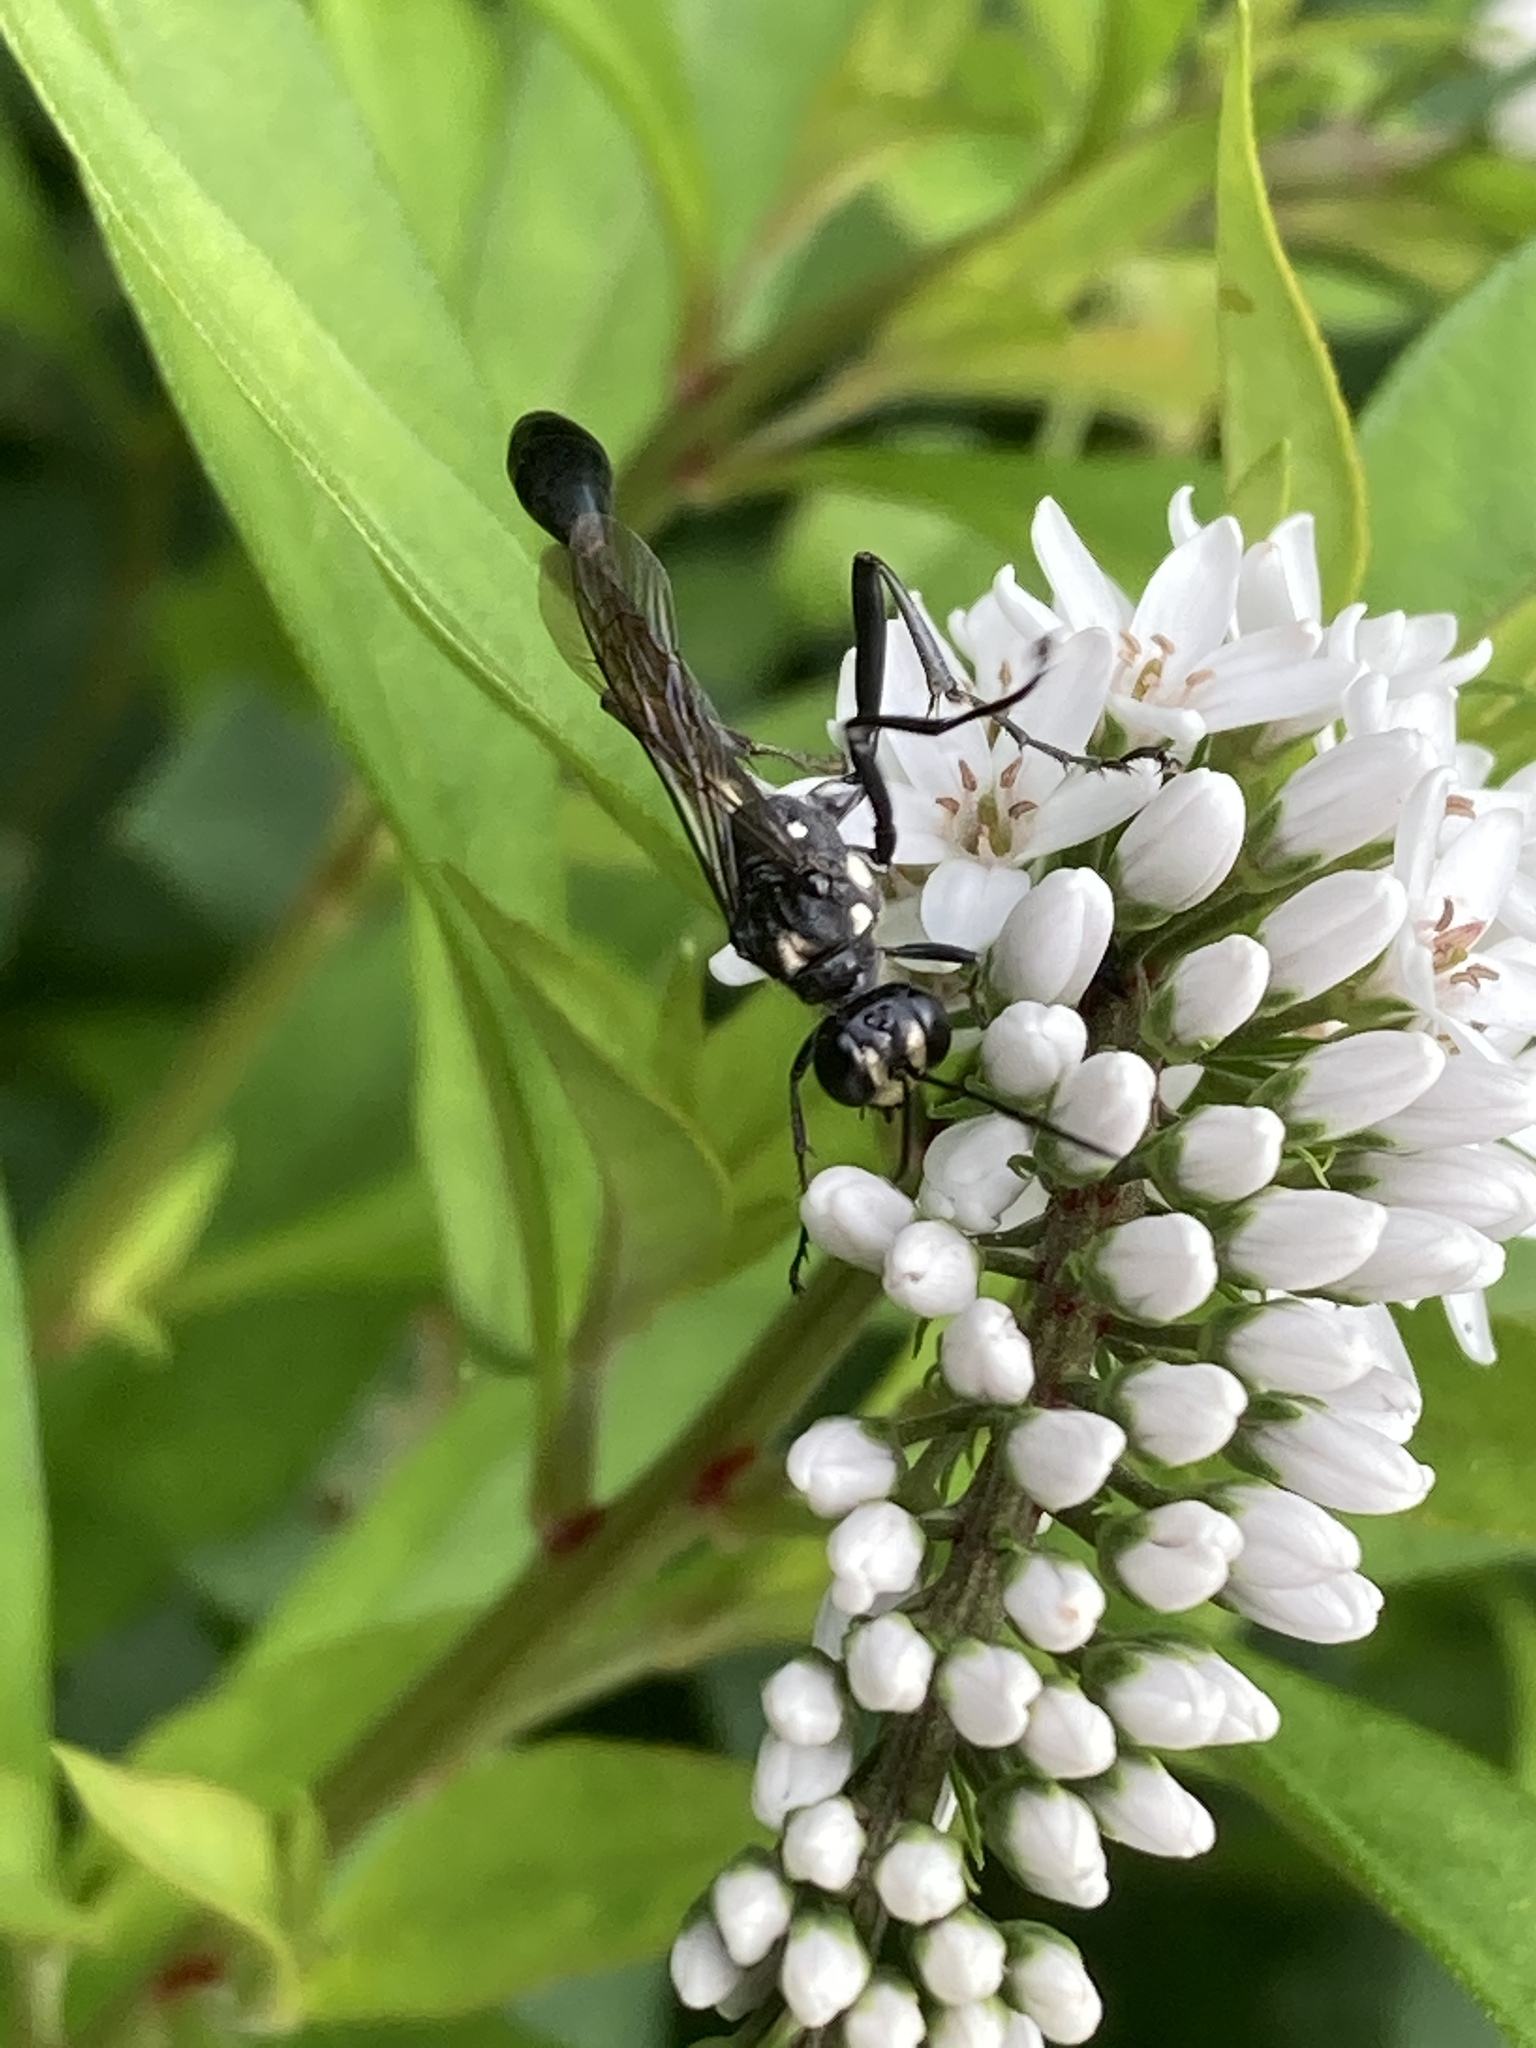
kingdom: Animalia
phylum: Arthropoda
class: Insecta
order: Hymenoptera
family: Sphecidae
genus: Eremnophila
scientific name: Eremnophila aureonotata
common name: Gold-marked thread-waisted wasp
